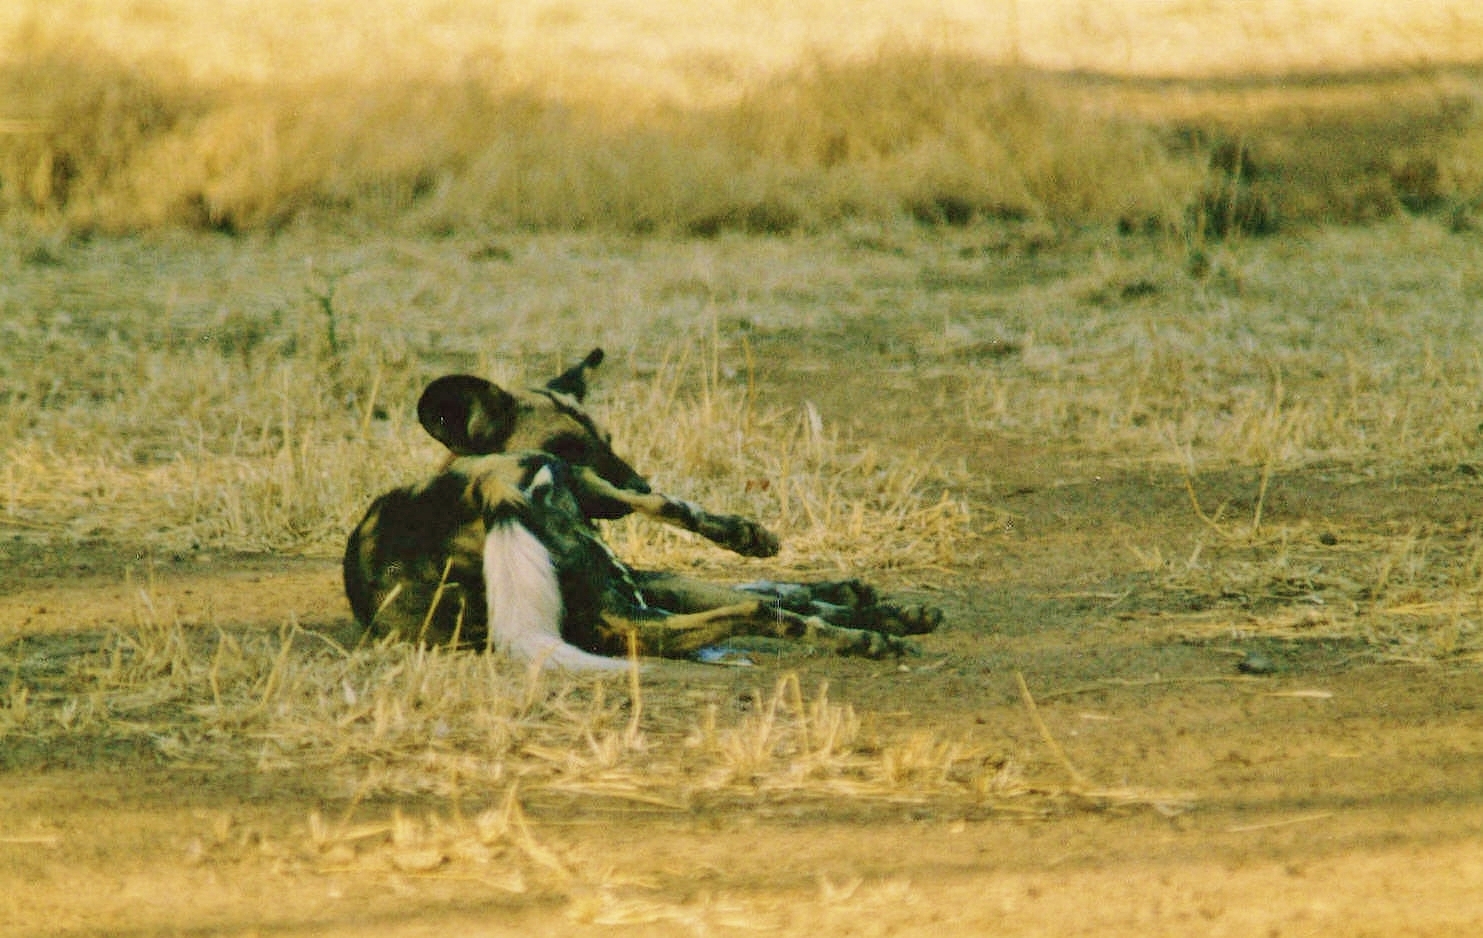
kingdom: Animalia
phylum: Chordata
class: Mammalia
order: Carnivora
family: Canidae
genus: Lycaon
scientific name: Lycaon pictus
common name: African wild dog
